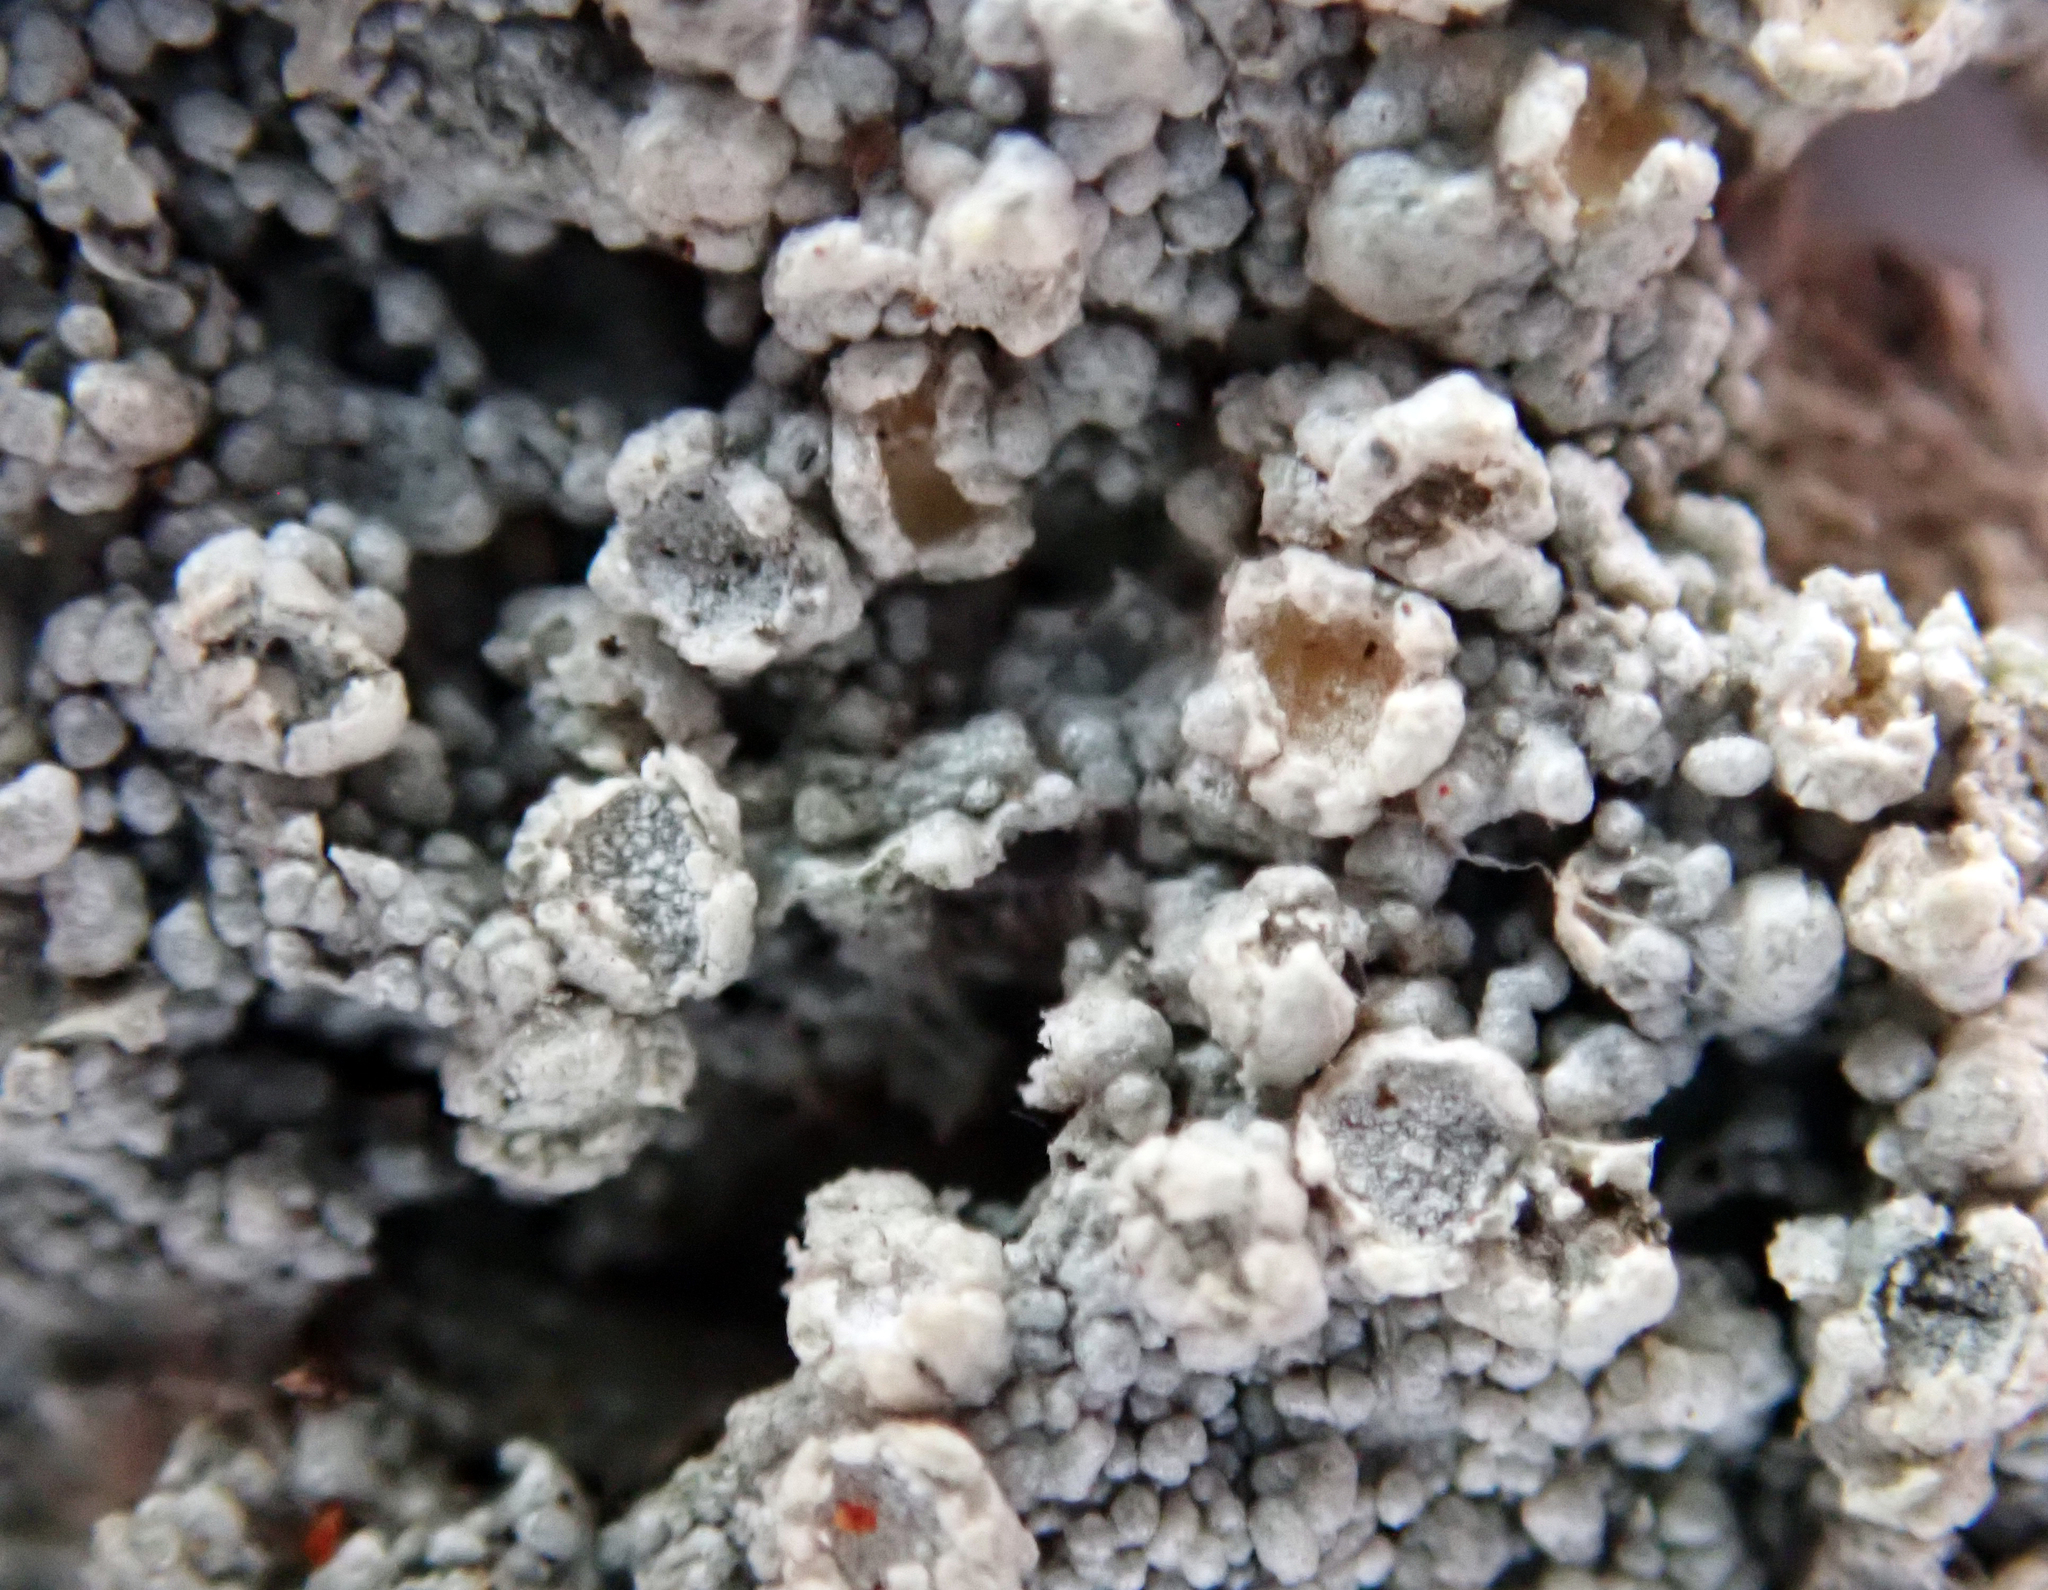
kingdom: Fungi
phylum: Ascomycota
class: Lecanoromycetes
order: Pertusariales
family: Coccotremataceae
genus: Coccotrema
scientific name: Coccotrema cucurbitula
